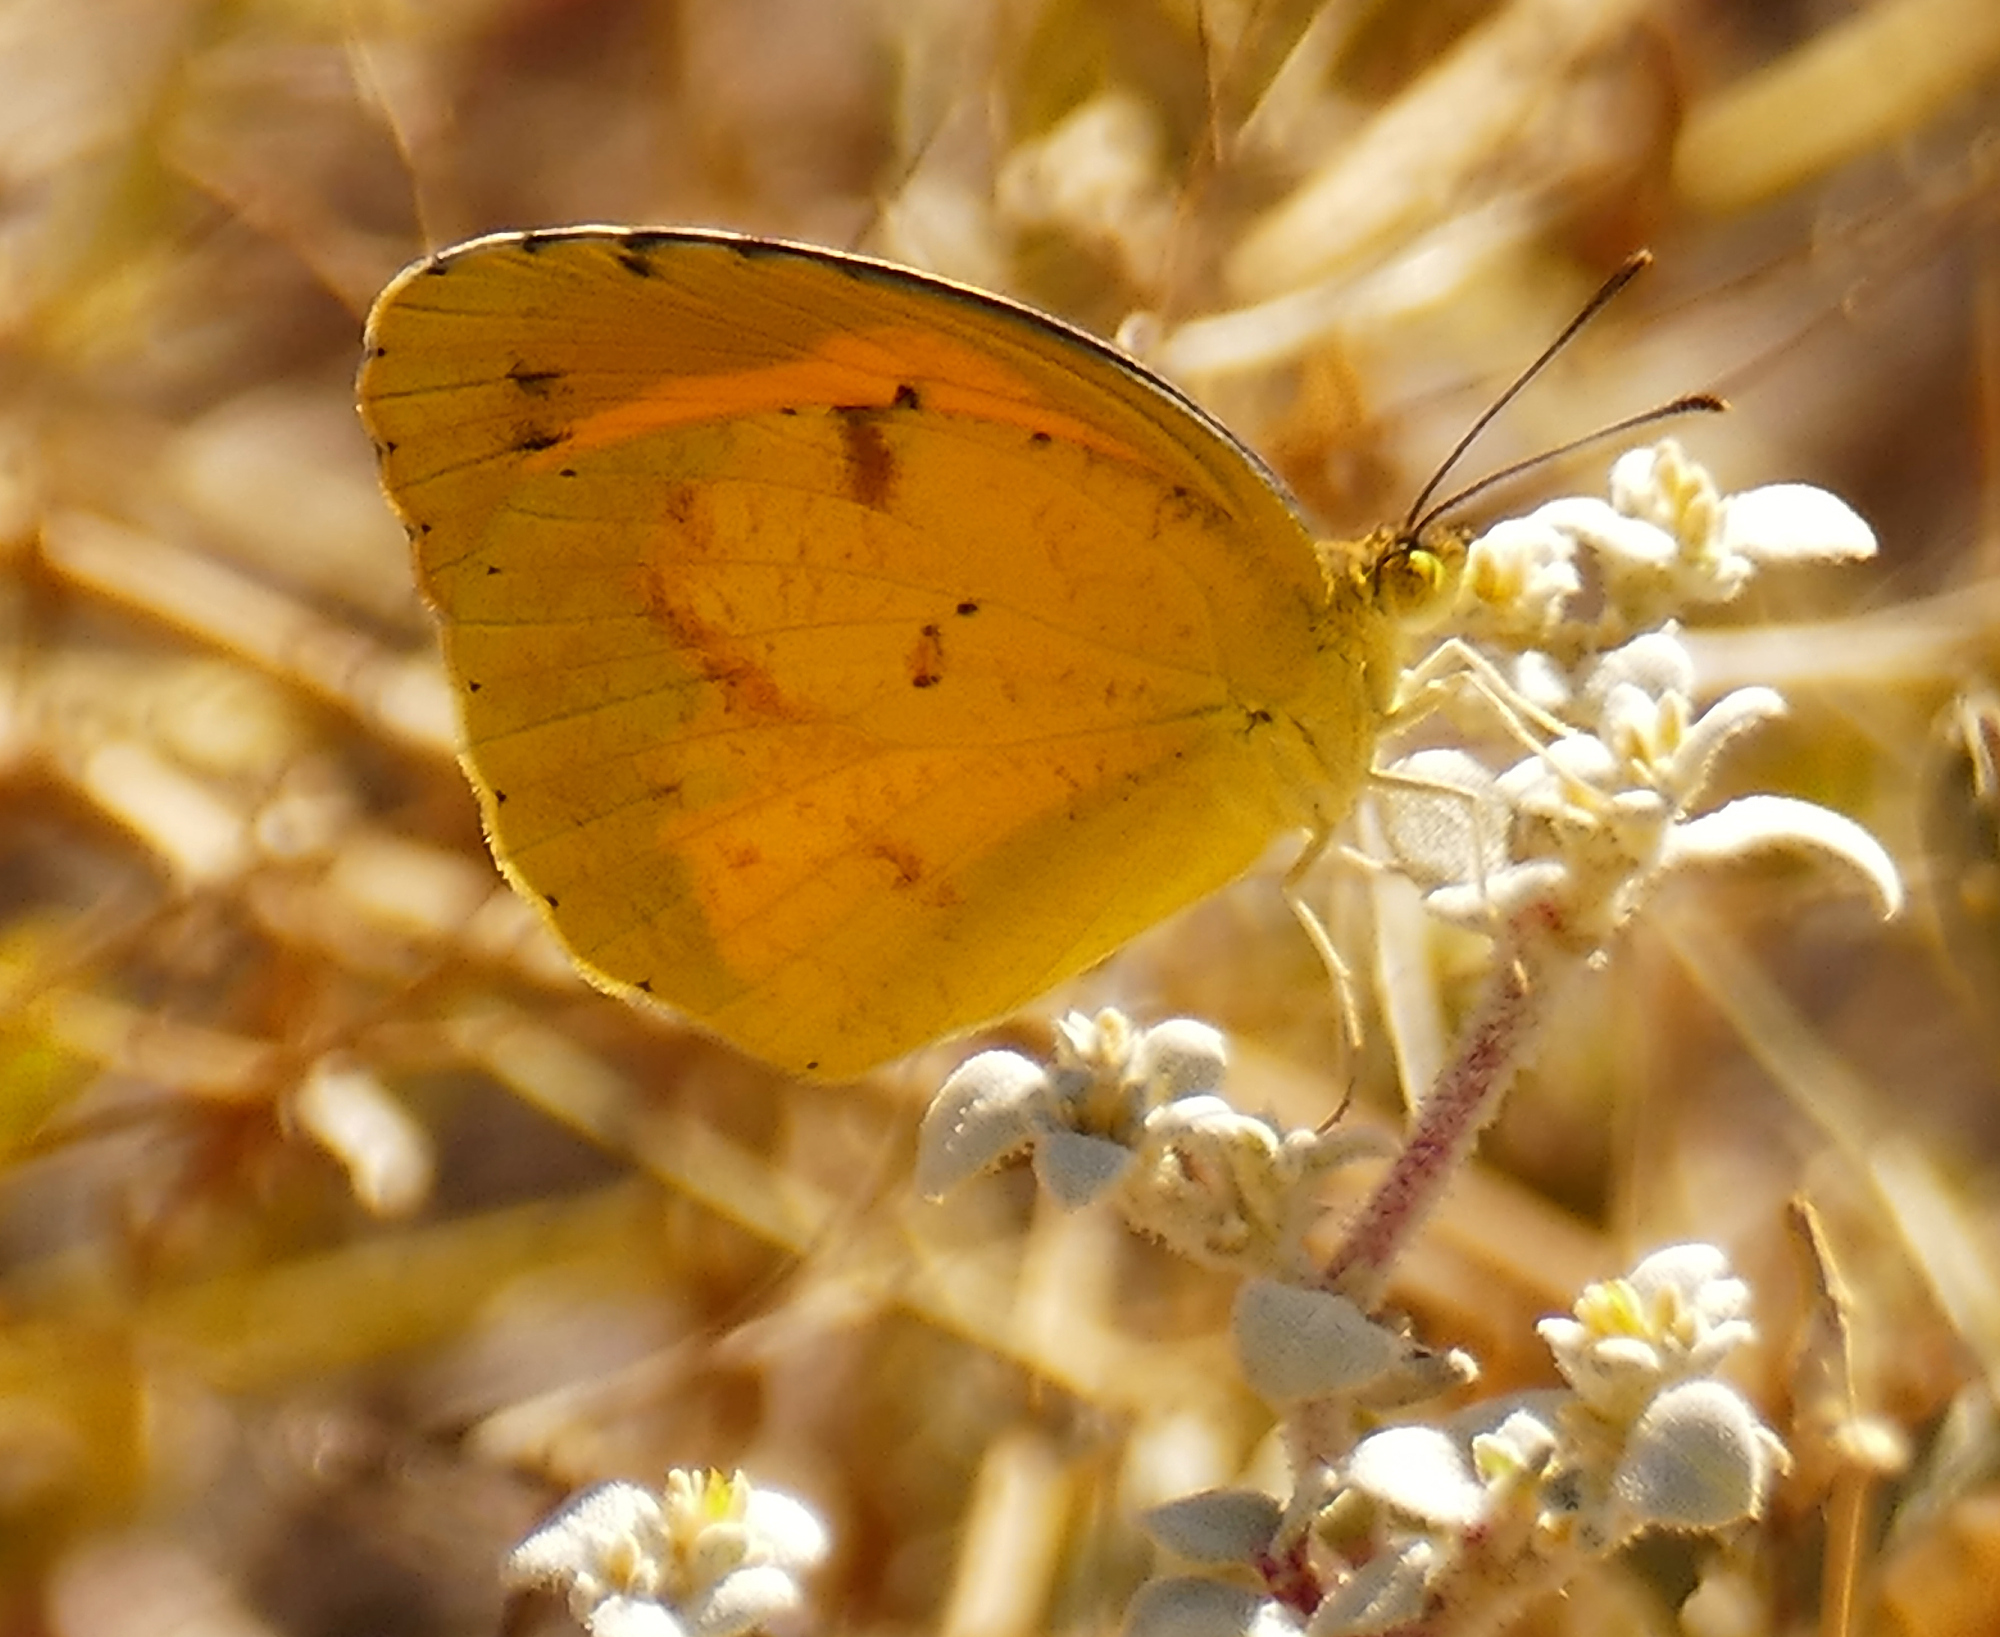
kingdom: Animalia
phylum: Arthropoda
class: Insecta
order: Lepidoptera
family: Pieridae
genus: Abaeis
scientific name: Abaeis nicippe
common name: Sleepy orange
